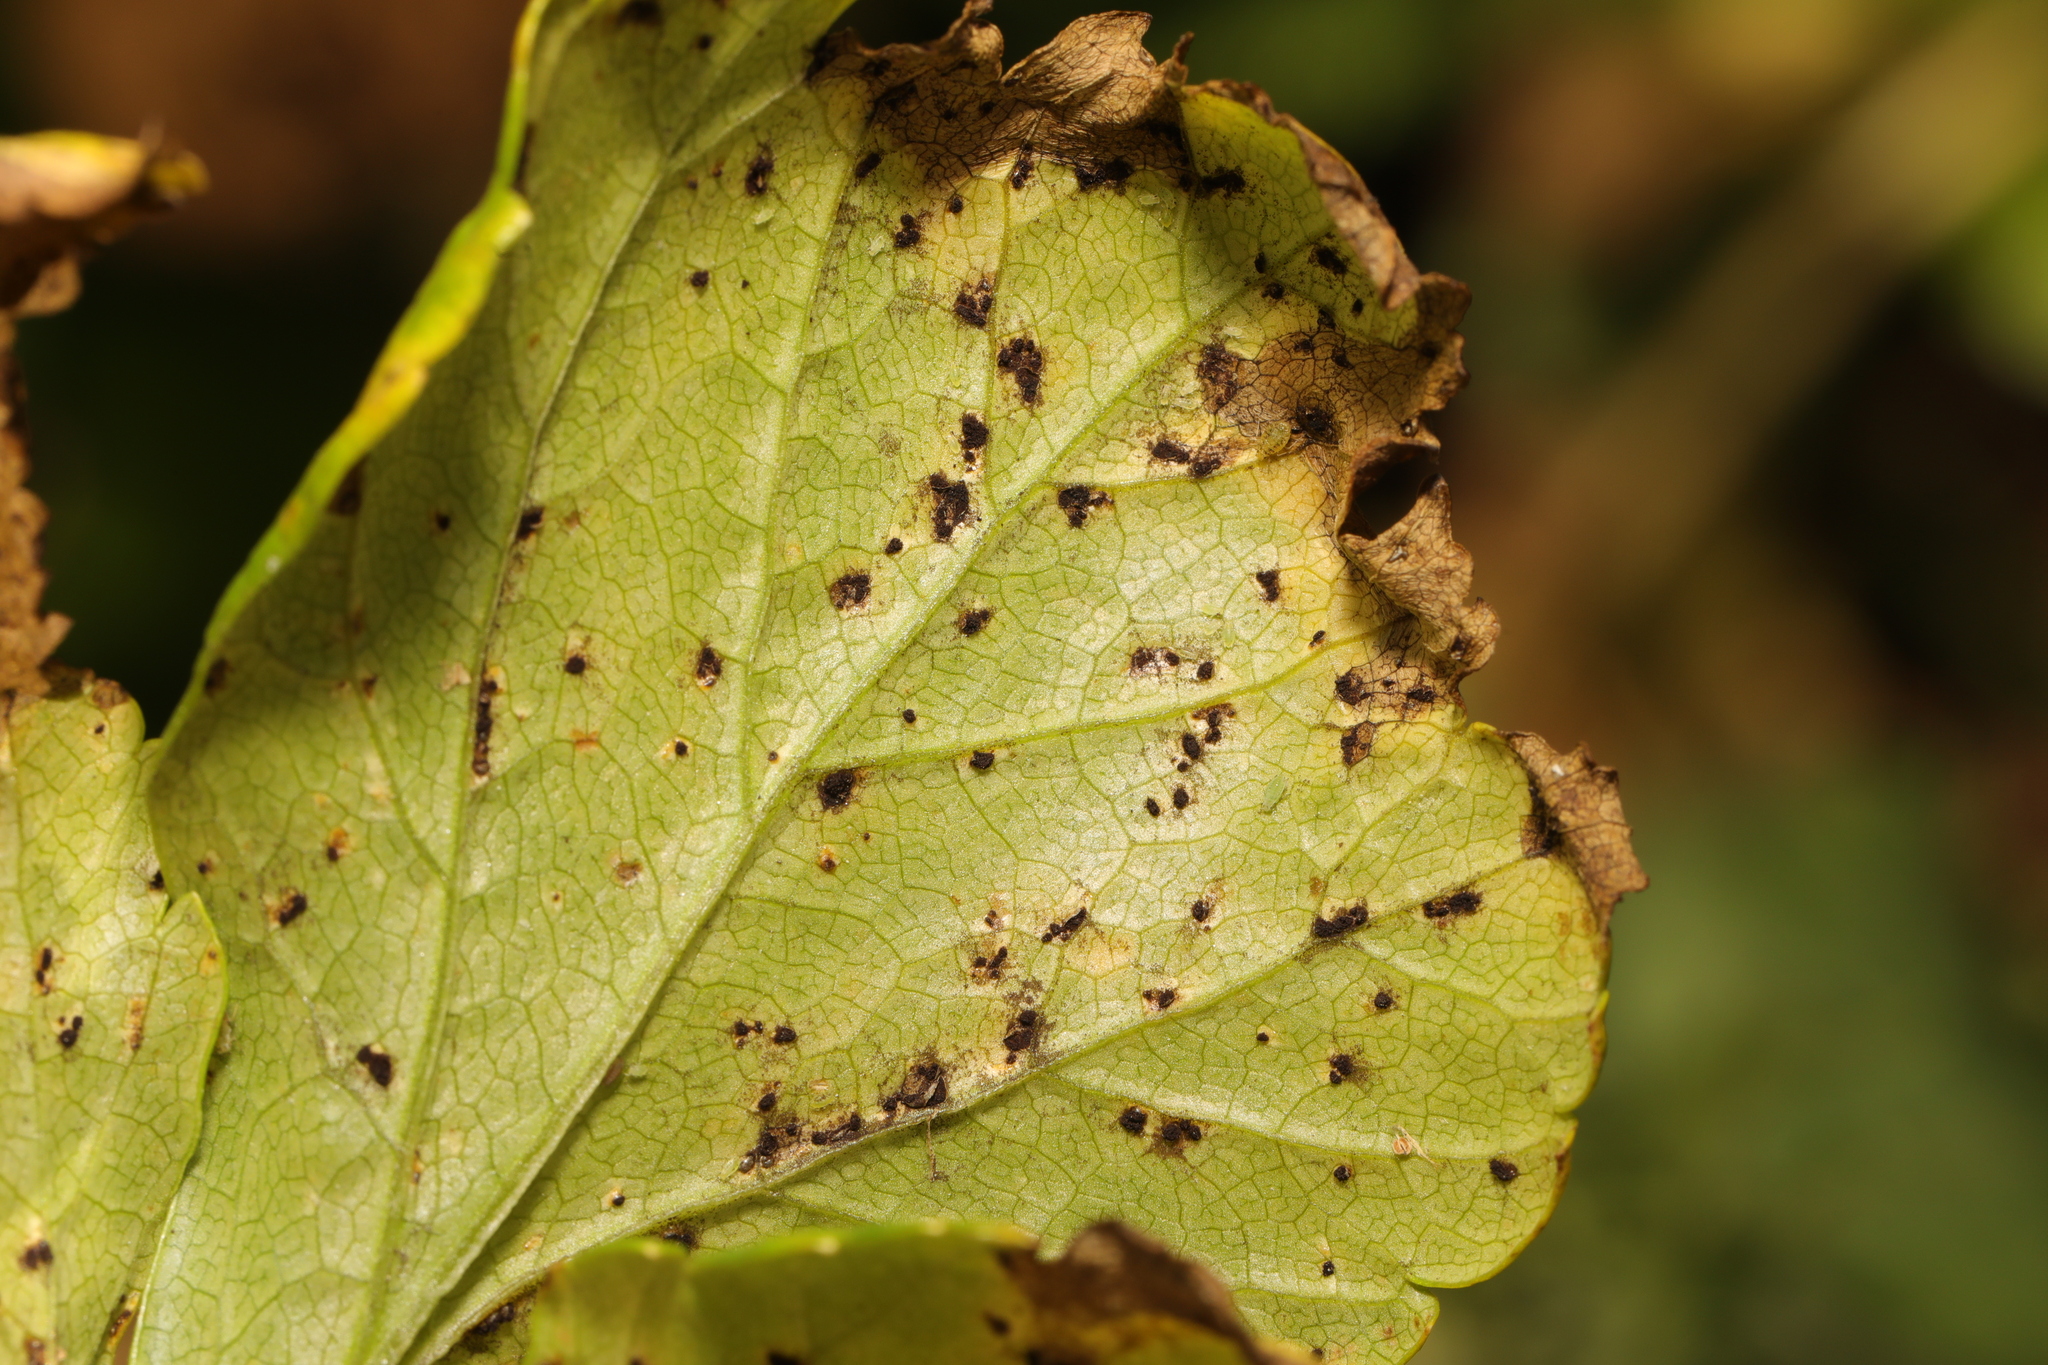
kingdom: Fungi
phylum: Basidiomycota
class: Pucciniomycetes
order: Pucciniales
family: Pucciniaceae
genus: Puccinia
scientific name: Puccinia smyrnii
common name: Alexanders rust
